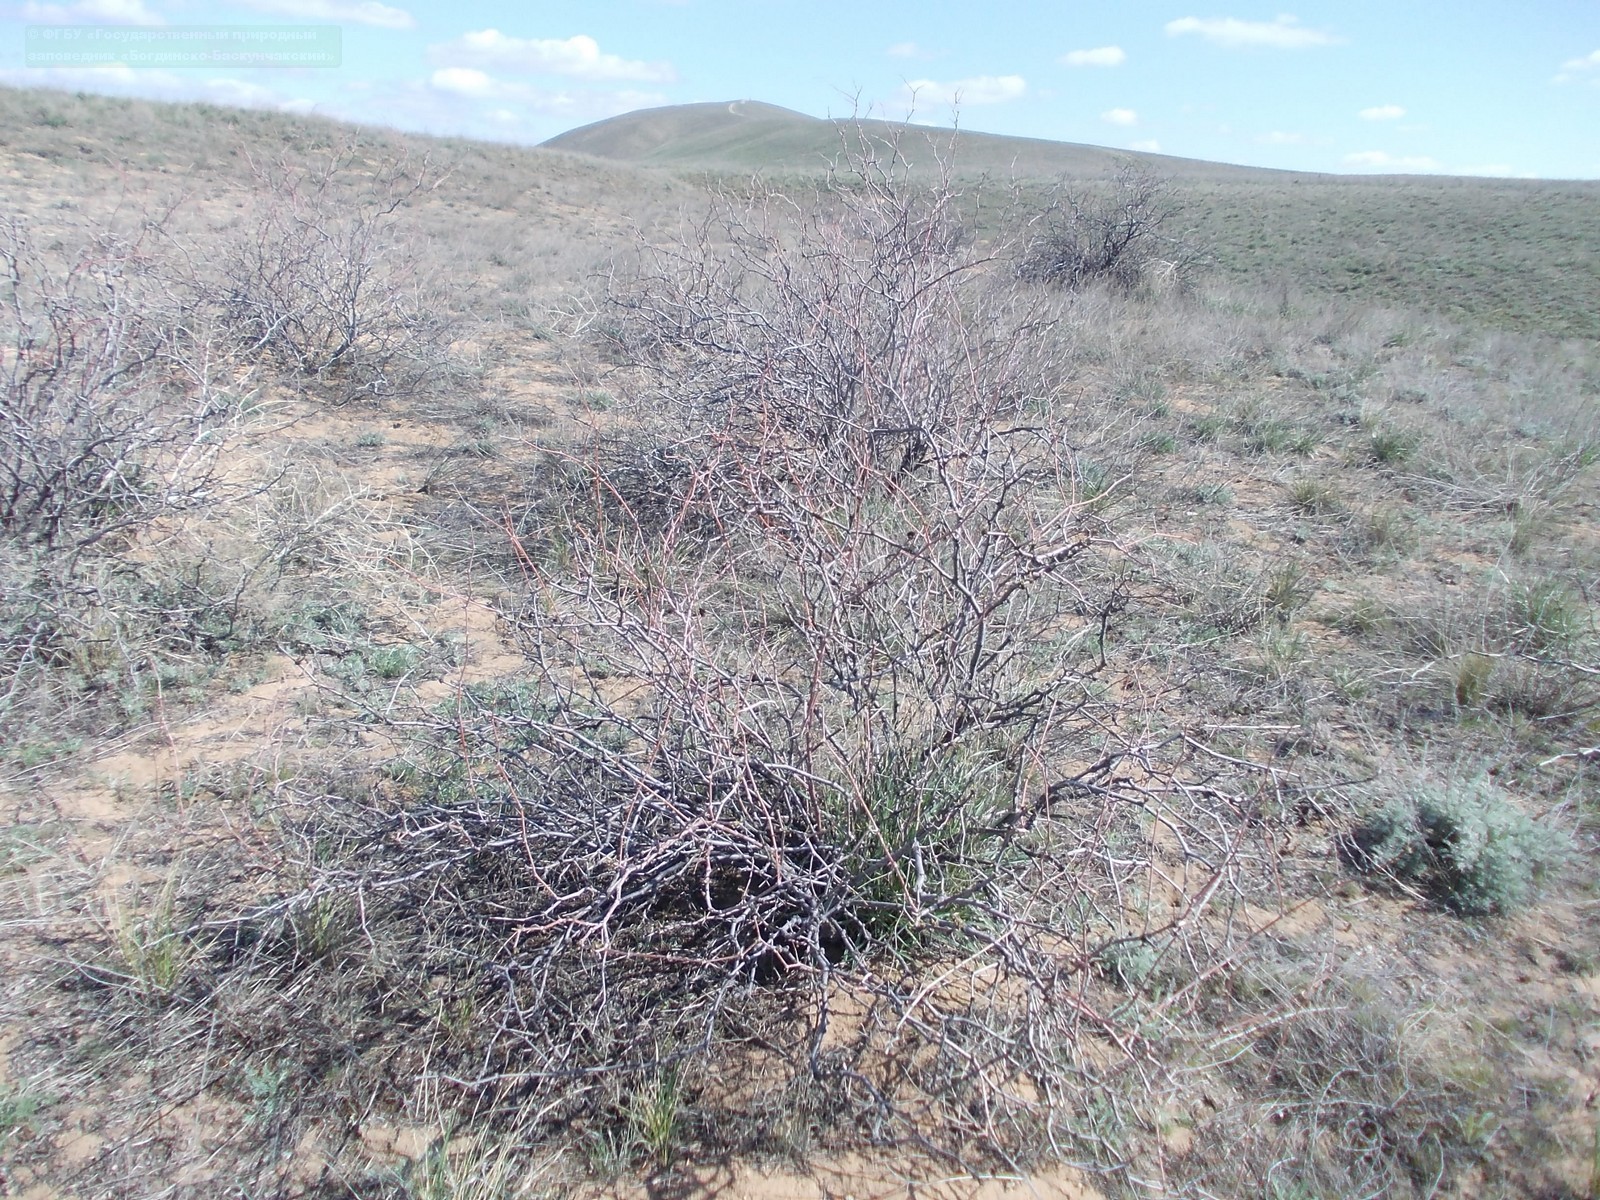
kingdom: Plantae
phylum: Tracheophyta
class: Magnoliopsida
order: Caryophyllales
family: Polygonaceae
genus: Calligonum
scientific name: Calligonum aphyllum
